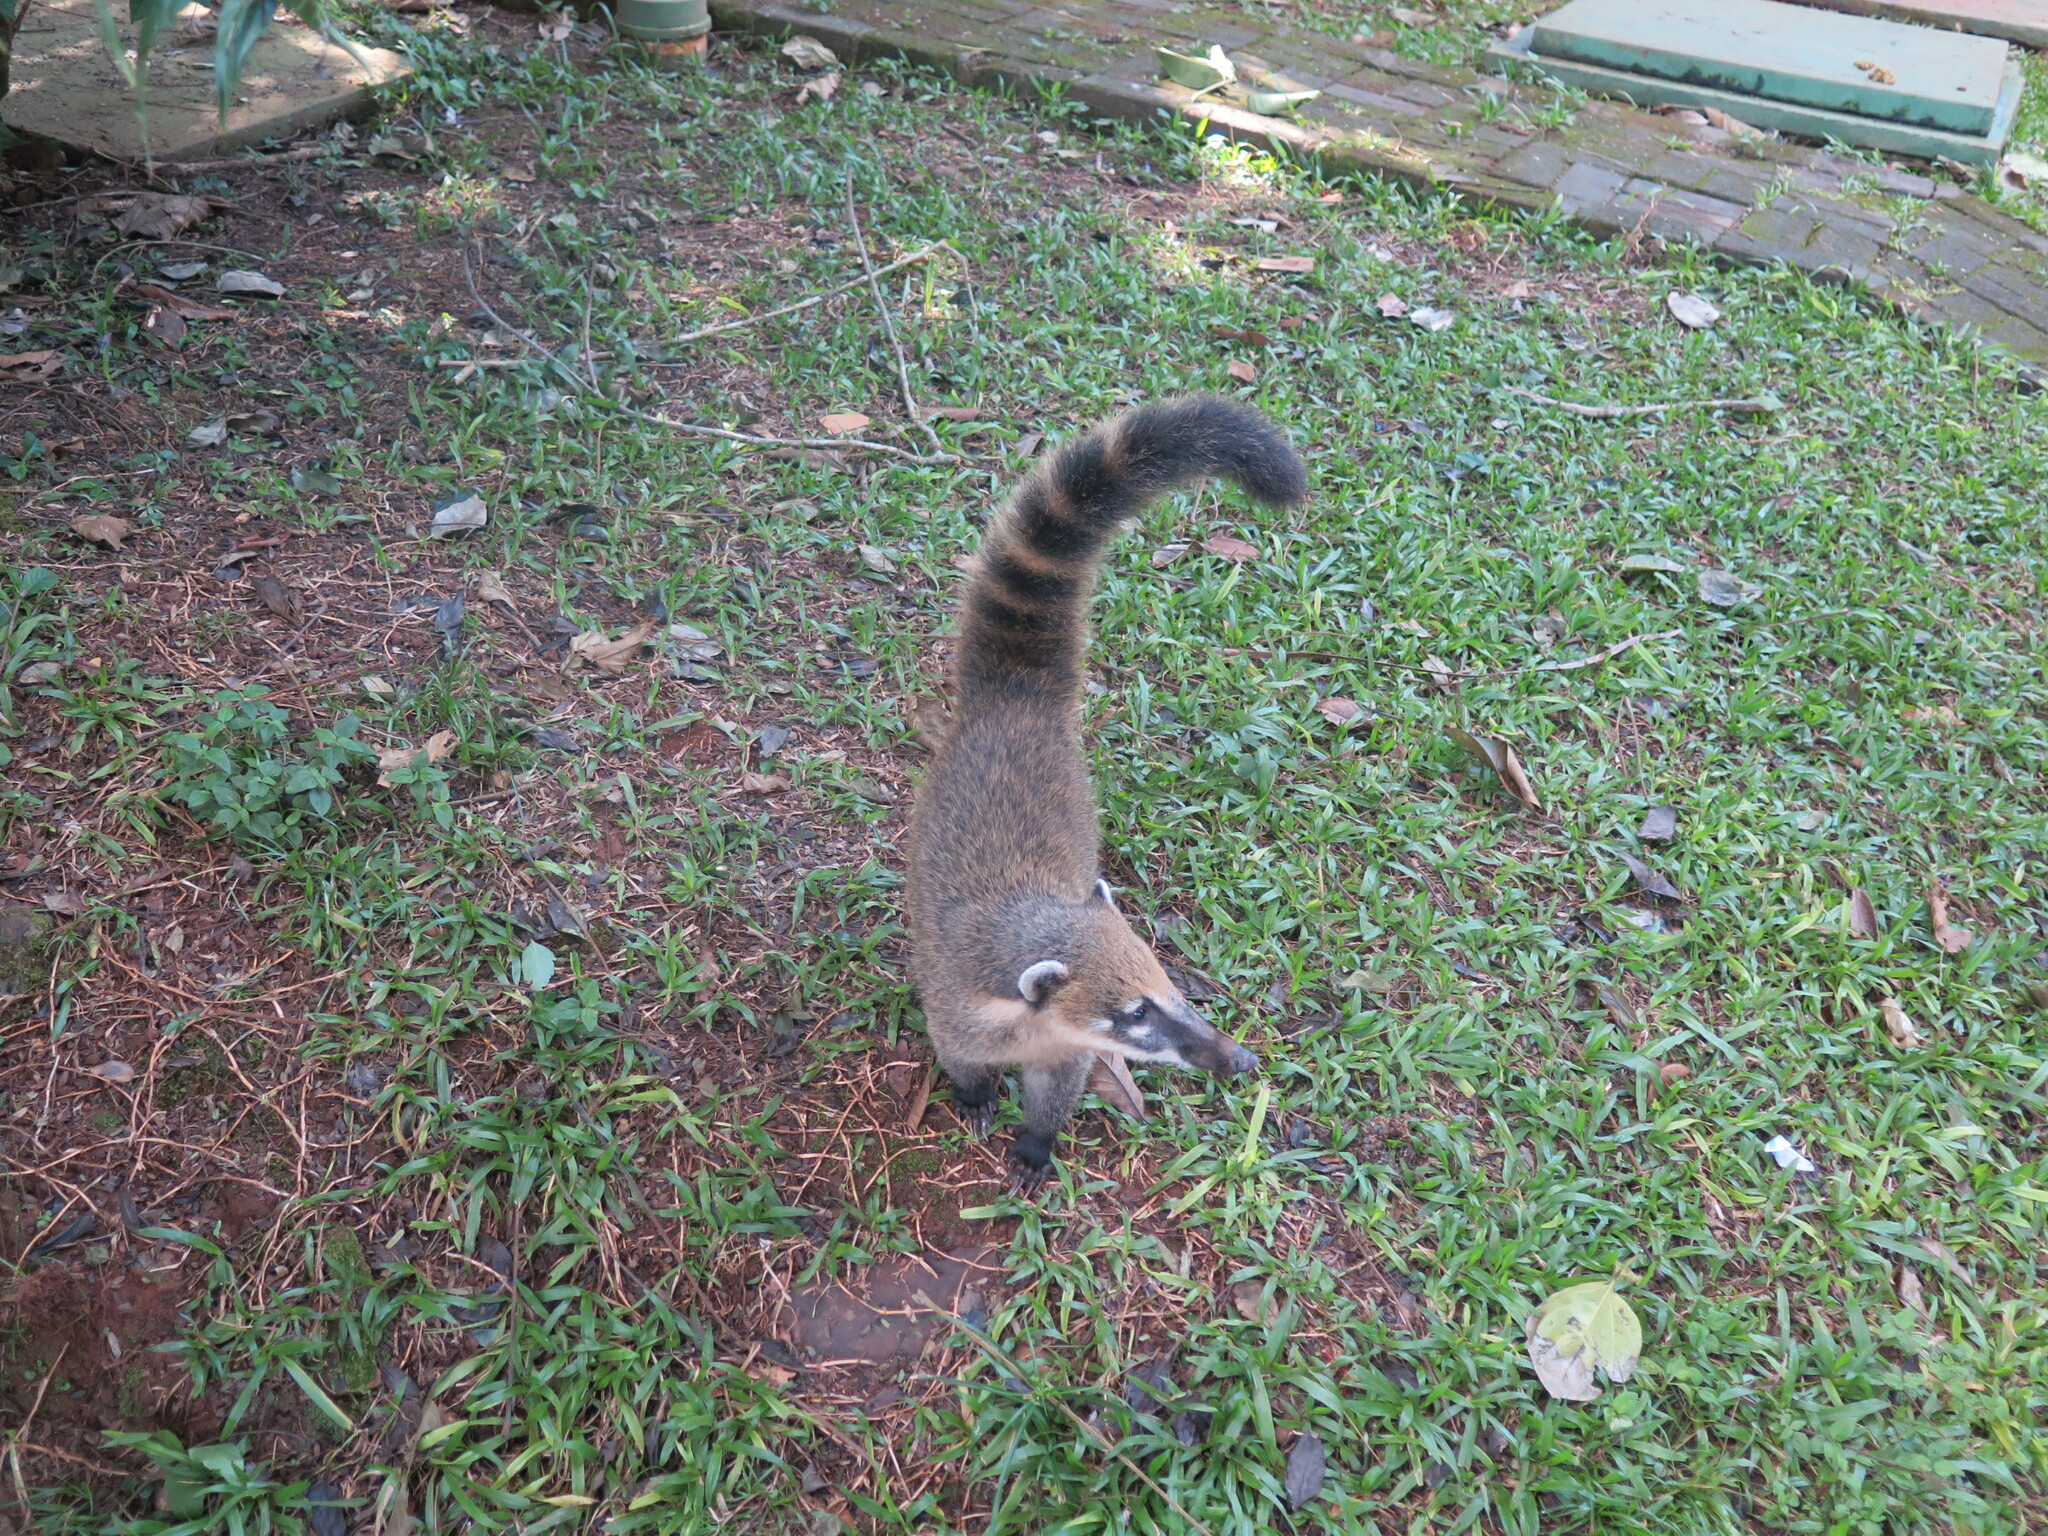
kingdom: Animalia
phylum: Chordata
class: Mammalia
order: Carnivora
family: Procyonidae
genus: Nasua
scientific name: Nasua nasua
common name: South american coati
